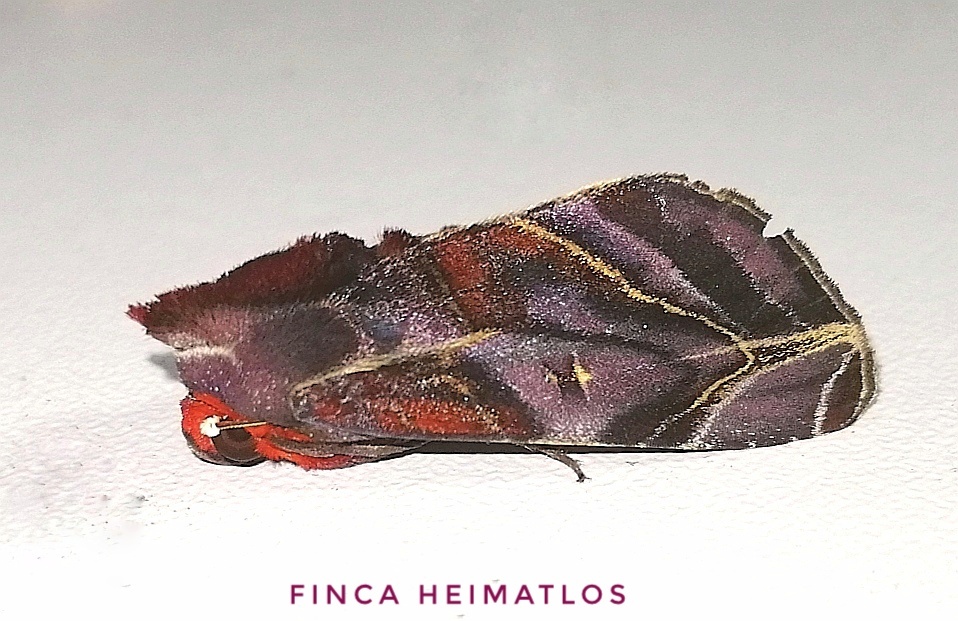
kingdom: Animalia
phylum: Arthropoda
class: Insecta
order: Lepidoptera
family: Erebidae
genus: Hemicephalis
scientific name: Hemicephalis alesa
